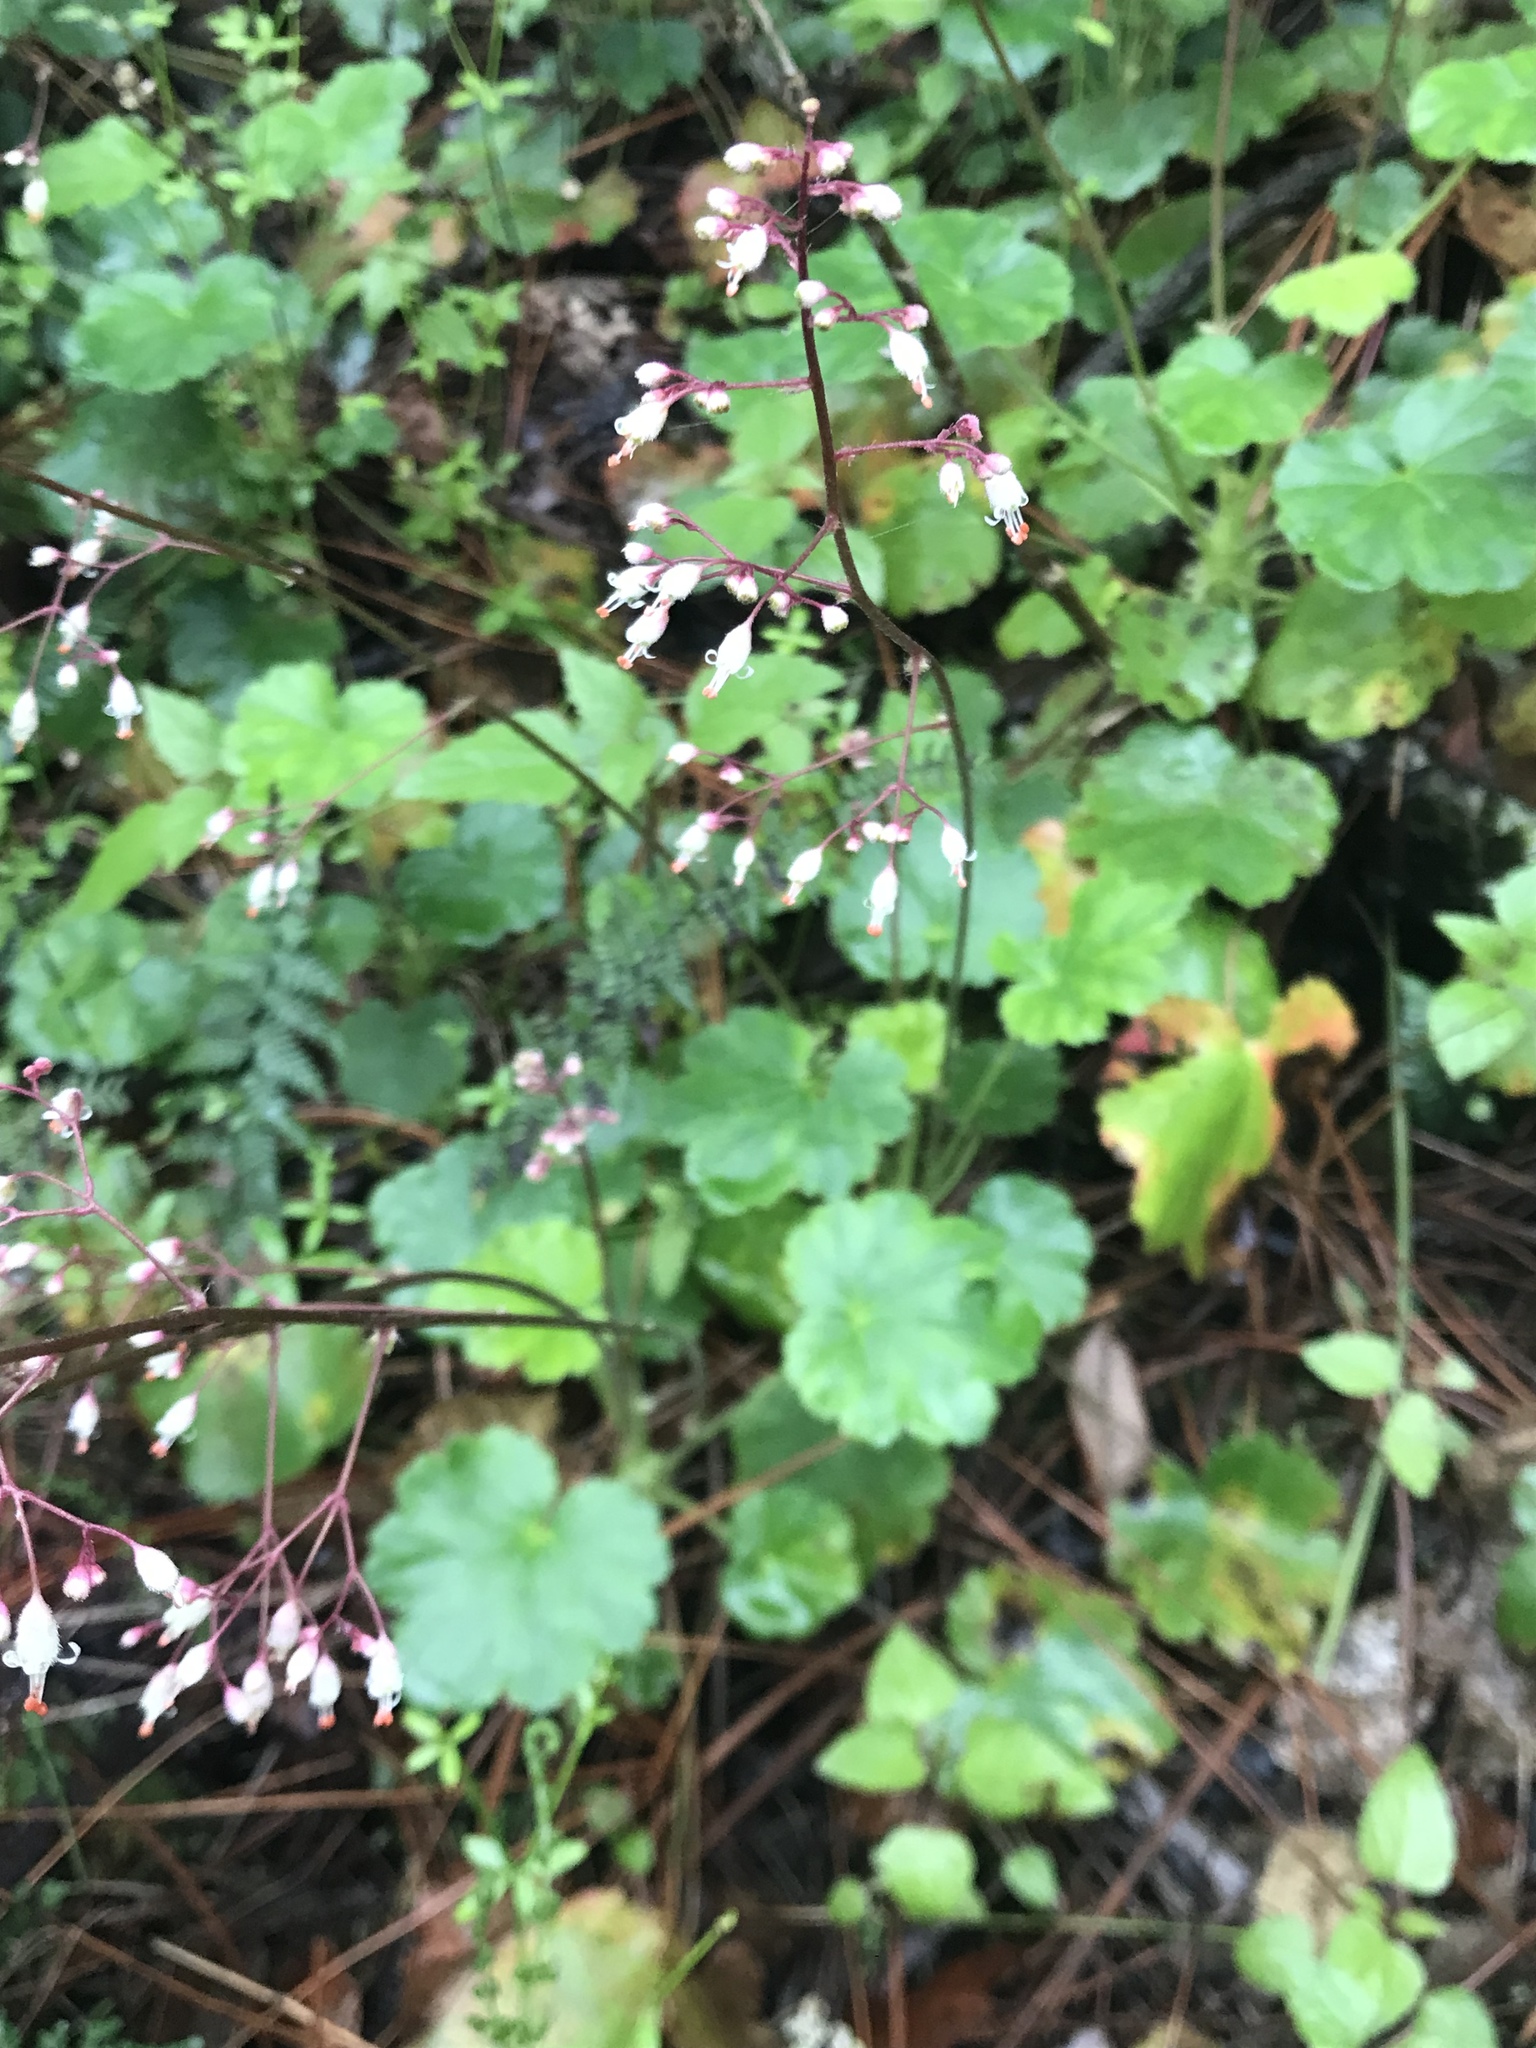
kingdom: Plantae
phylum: Tracheophyta
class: Magnoliopsida
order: Saxifragales
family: Saxifragaceae
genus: Heuchera
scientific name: Heuchera rubescens
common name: Jack-o'the-rocks
